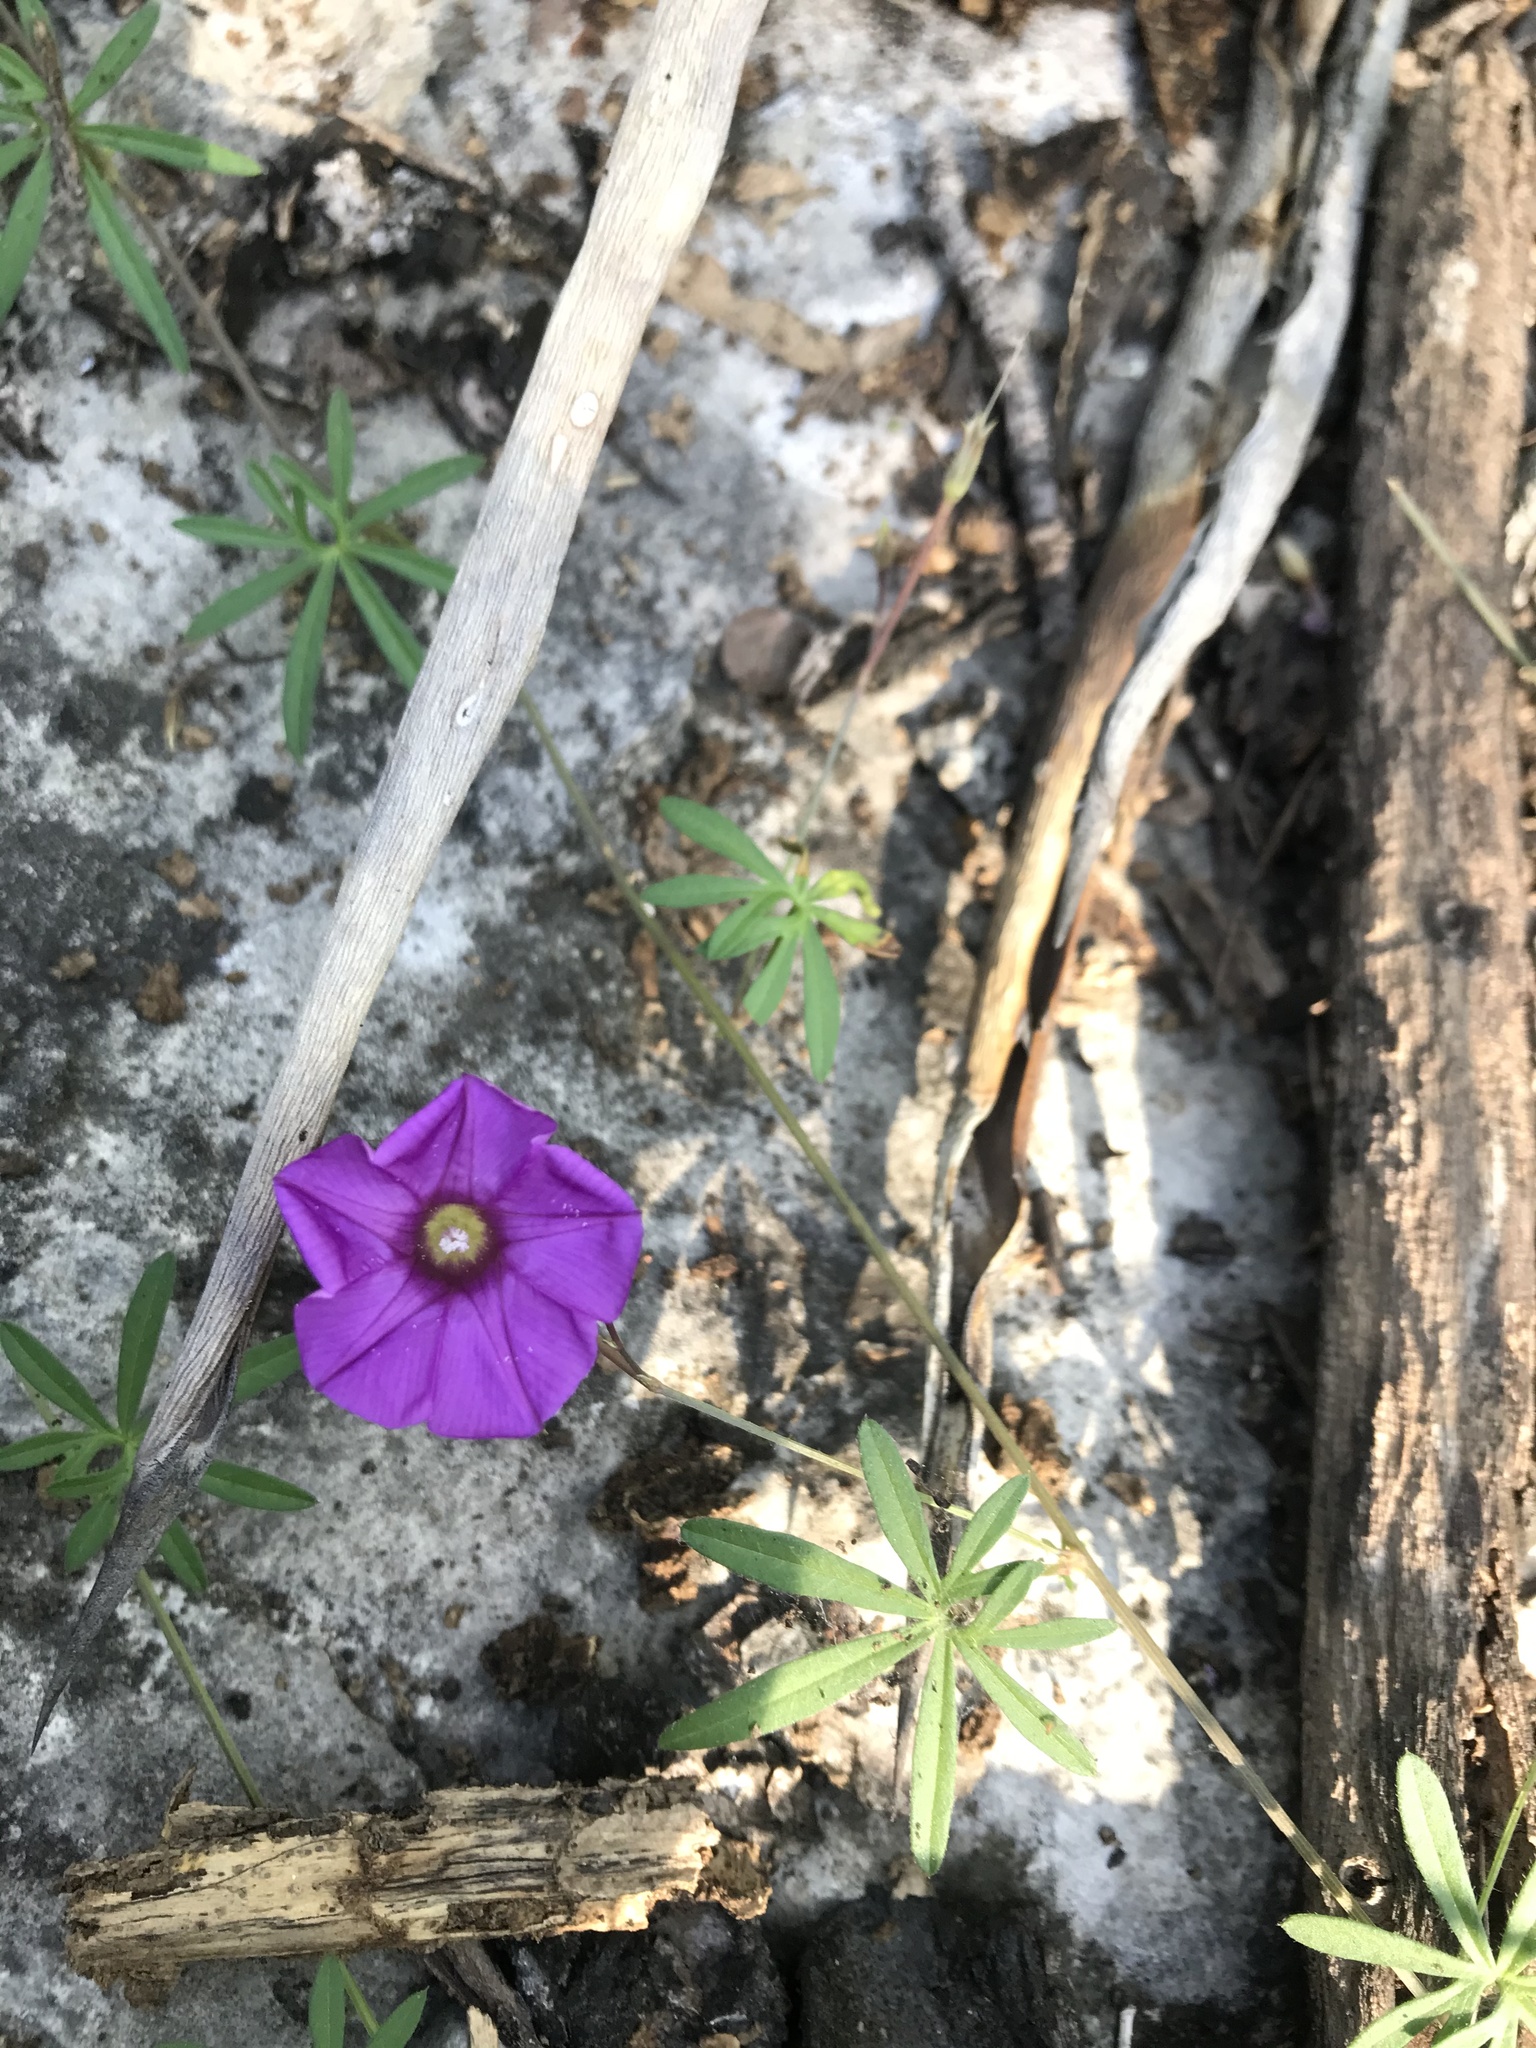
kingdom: Plantae
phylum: Tracheophyta
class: Magnoliopsida
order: Solanales
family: Convolvulaceae
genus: Ipomoea
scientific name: Ipomoea ternifolia
